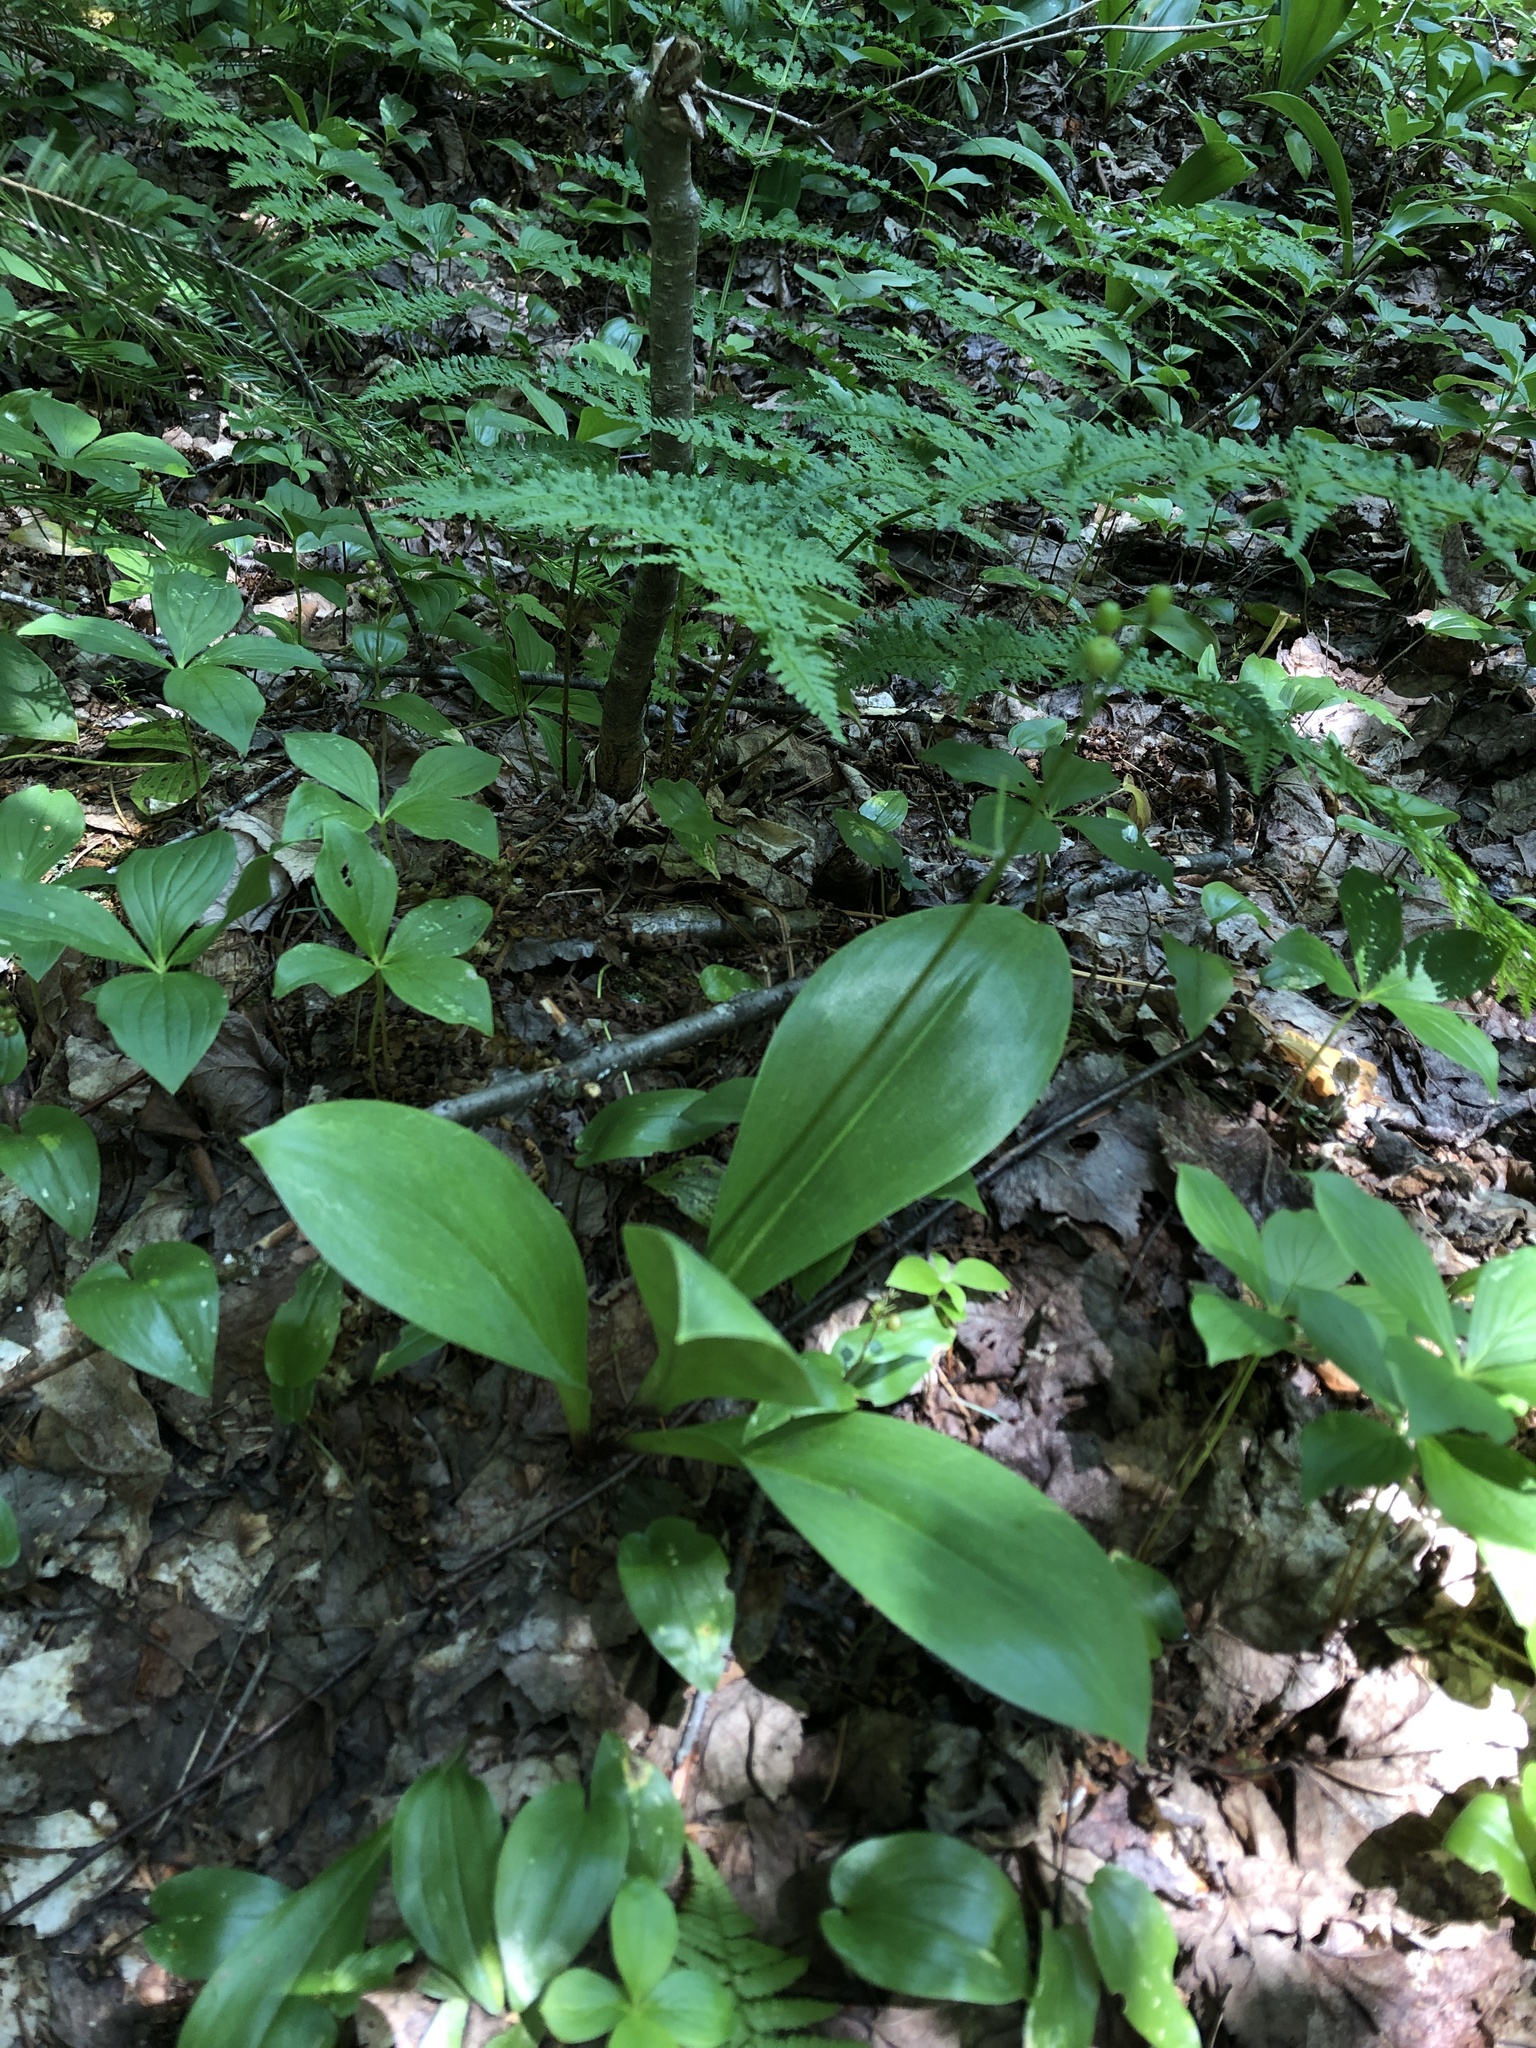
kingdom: Plantae
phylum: Tracheophyta
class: Liliopsida
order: Liliales
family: Liliaceae
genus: Clintonia
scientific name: Clintonia borealis
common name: Yellow clintonia
